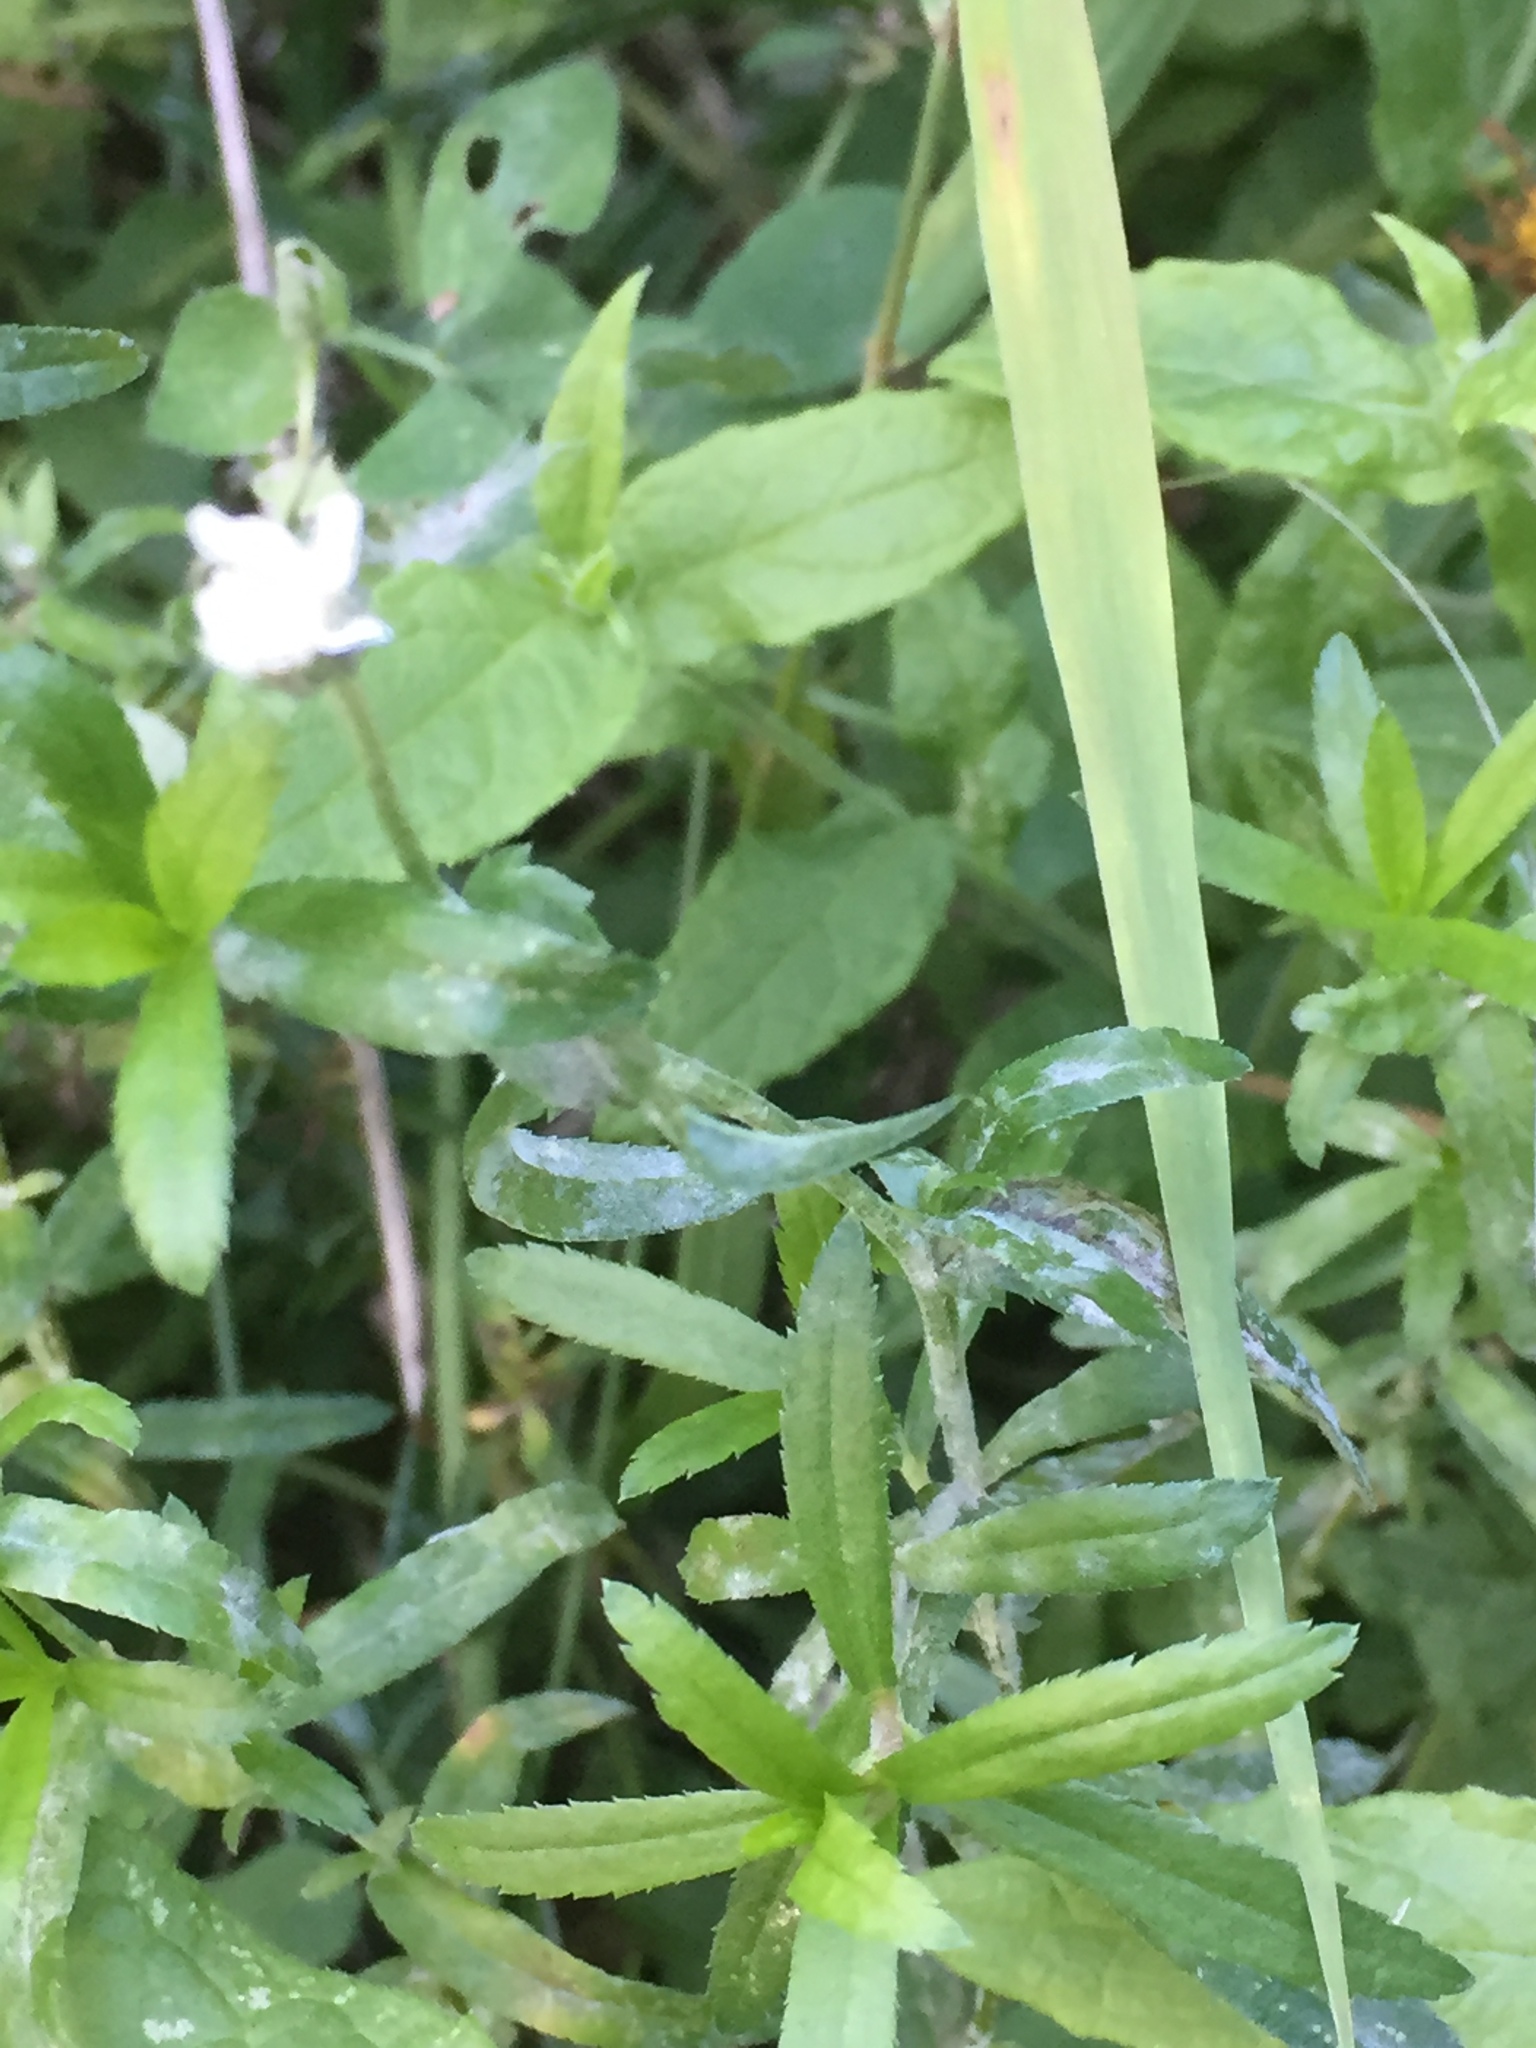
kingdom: Plantae
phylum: Tracheophyta
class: Magnoliopsida
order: Asterales
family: Asteraceae
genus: Achillea
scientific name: Achillea ptarmica
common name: Sneezeweed
